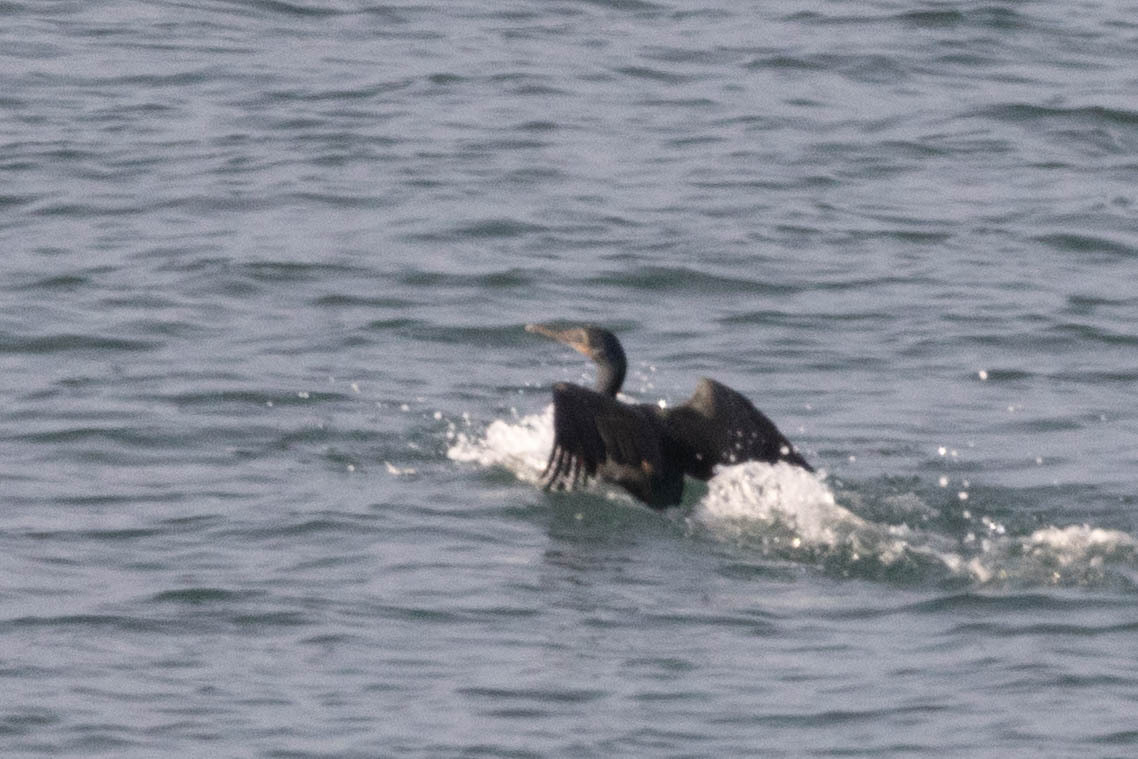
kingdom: Animalia
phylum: Chordata
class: Aves
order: Suliformes
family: Phalacrocoracidae
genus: Urile
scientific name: Urile penicillatus
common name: Brandt's cormorant
